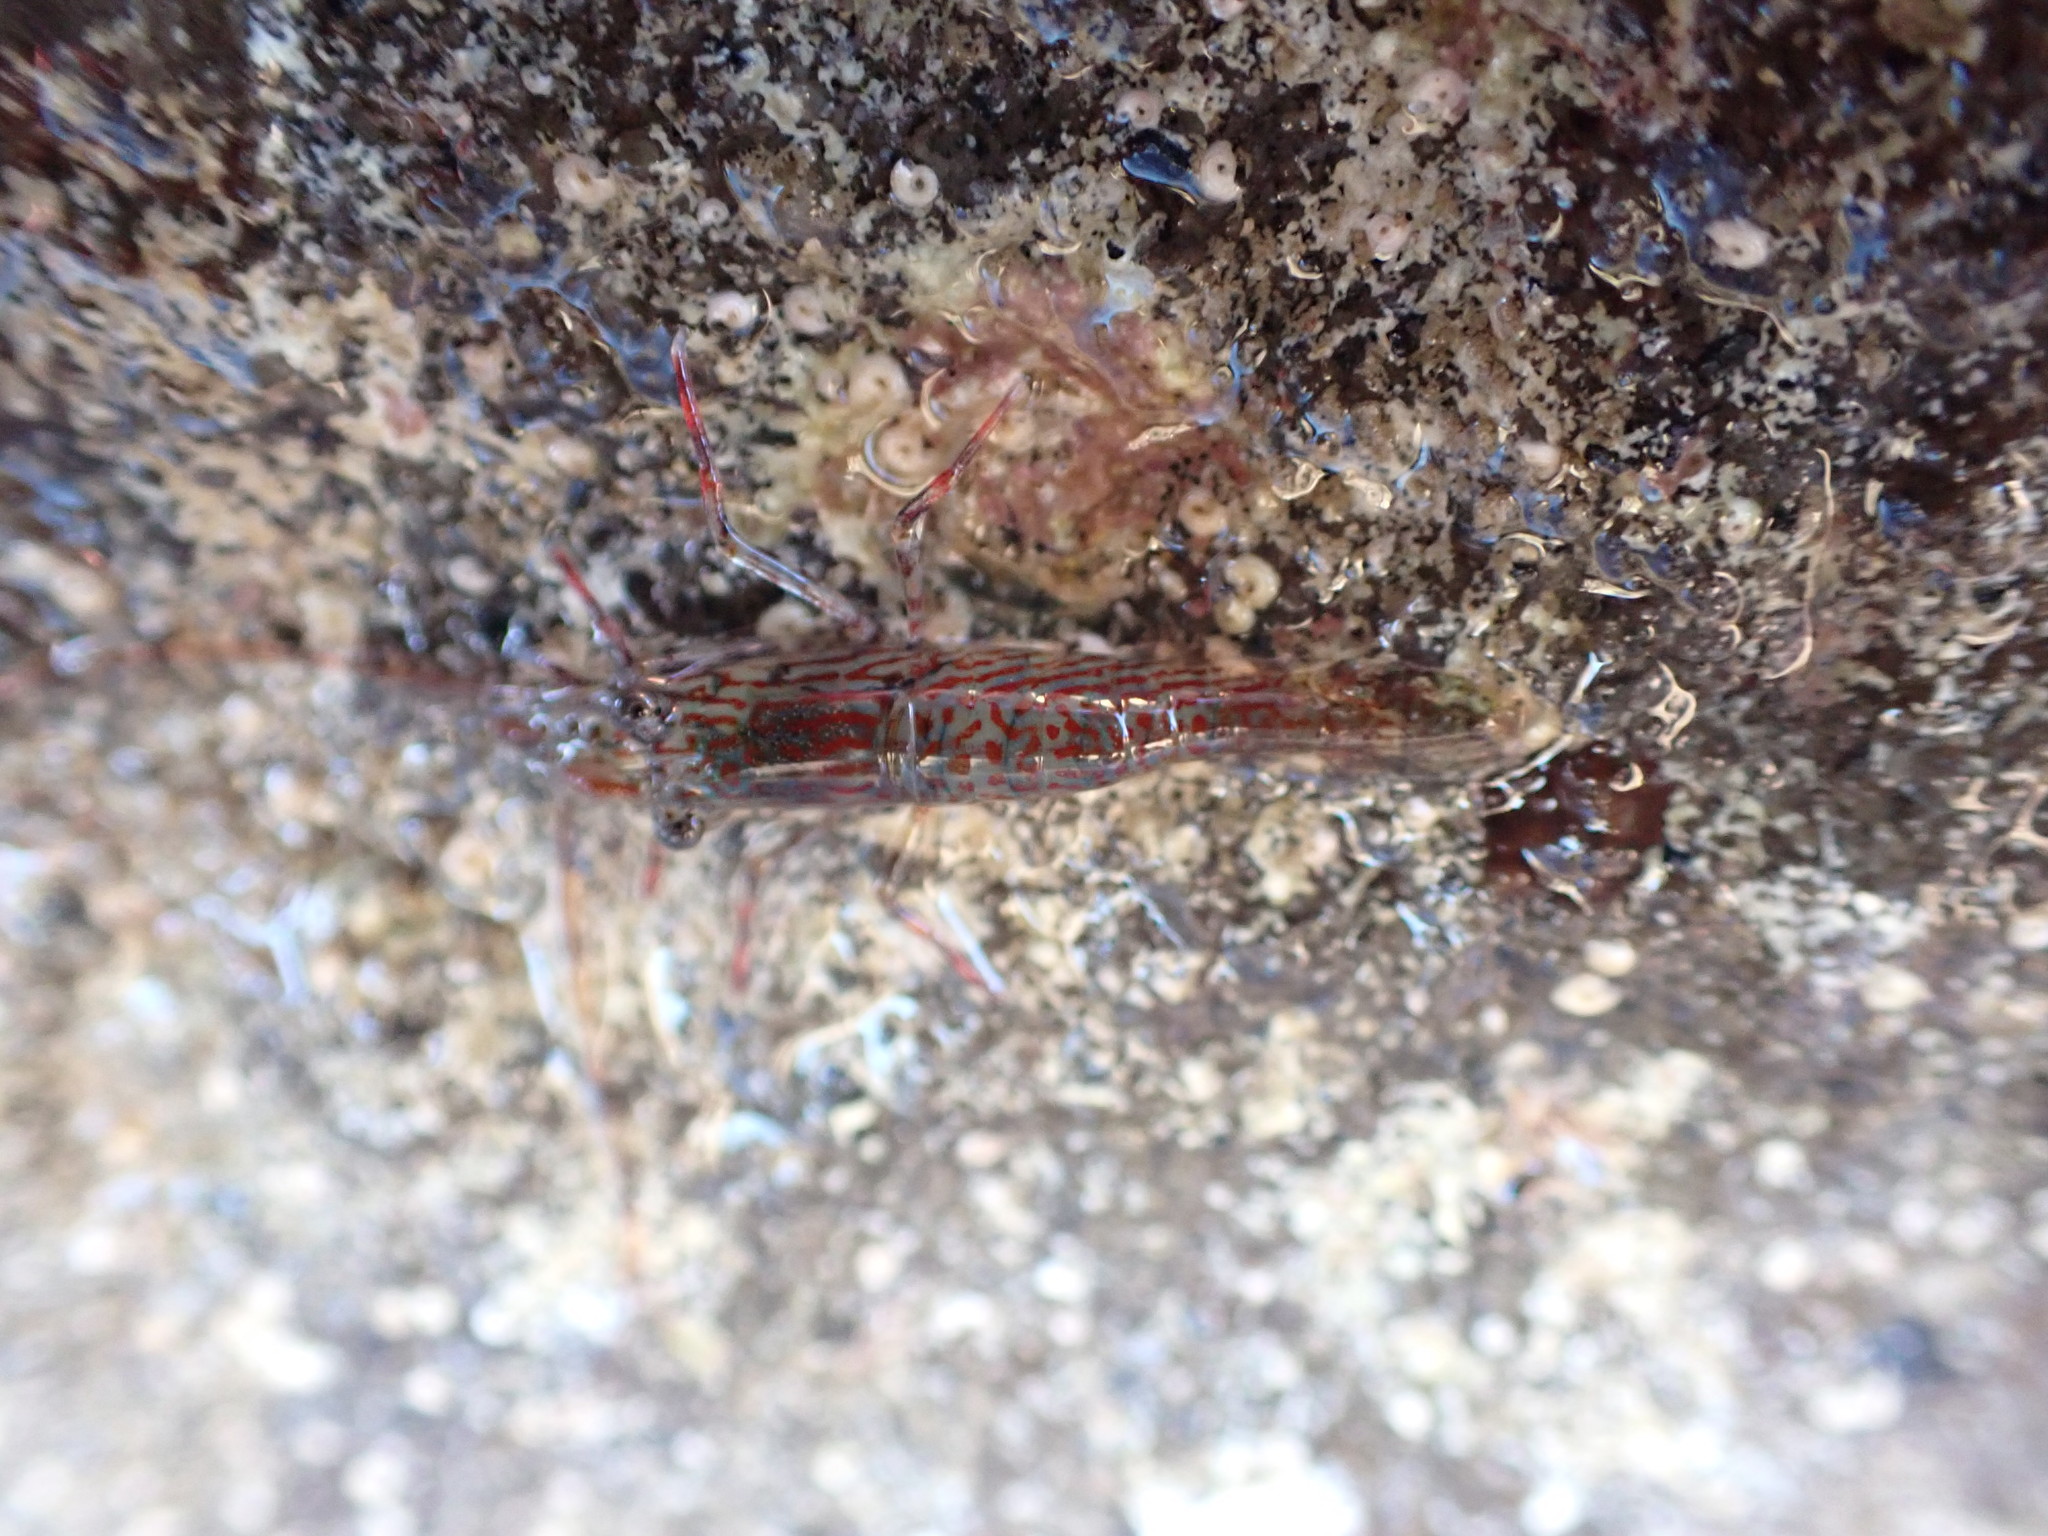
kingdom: Animalia
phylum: Arthropoda
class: Malacostraca
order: Decapoda
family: Hippolytidae
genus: Alope
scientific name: Alope spinifrons
